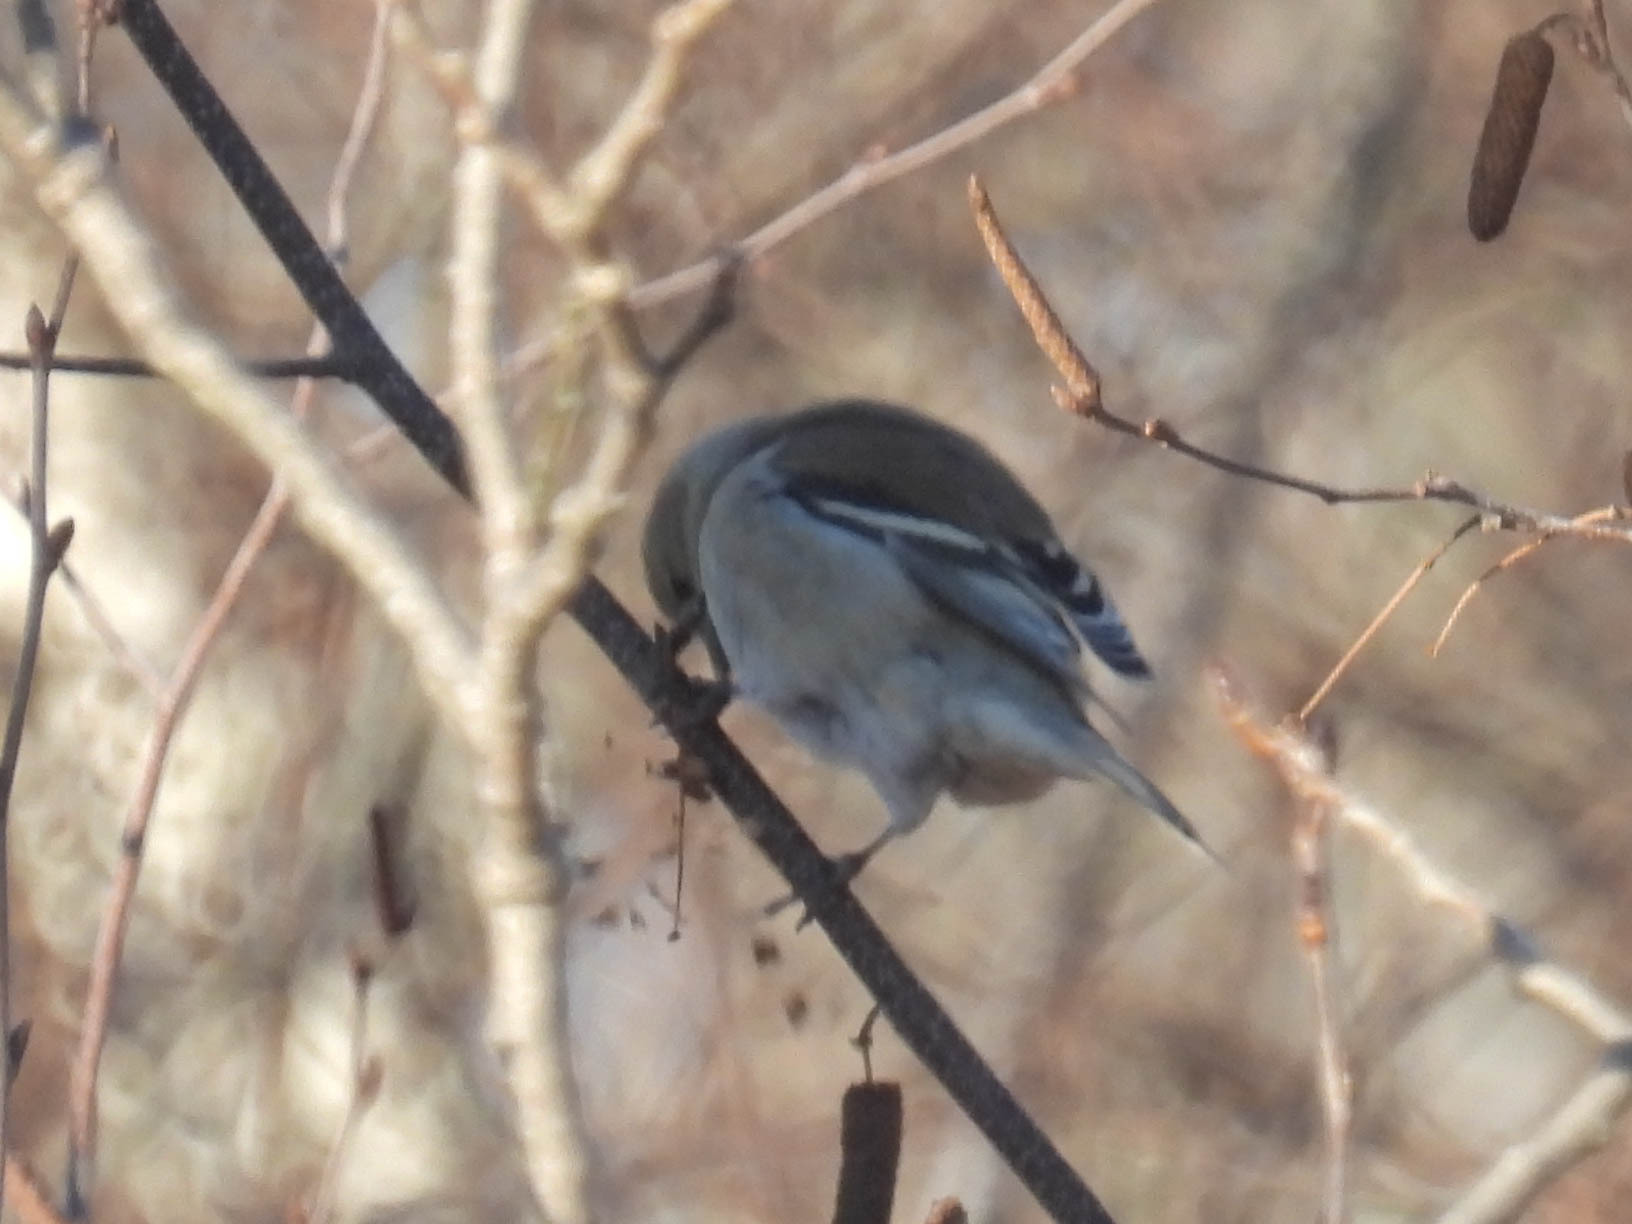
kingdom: Animalia
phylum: Chordata
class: Aves
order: Passeriformes
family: Fringillidae
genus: Spinus
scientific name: Spinus tristis
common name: American goldfinch
